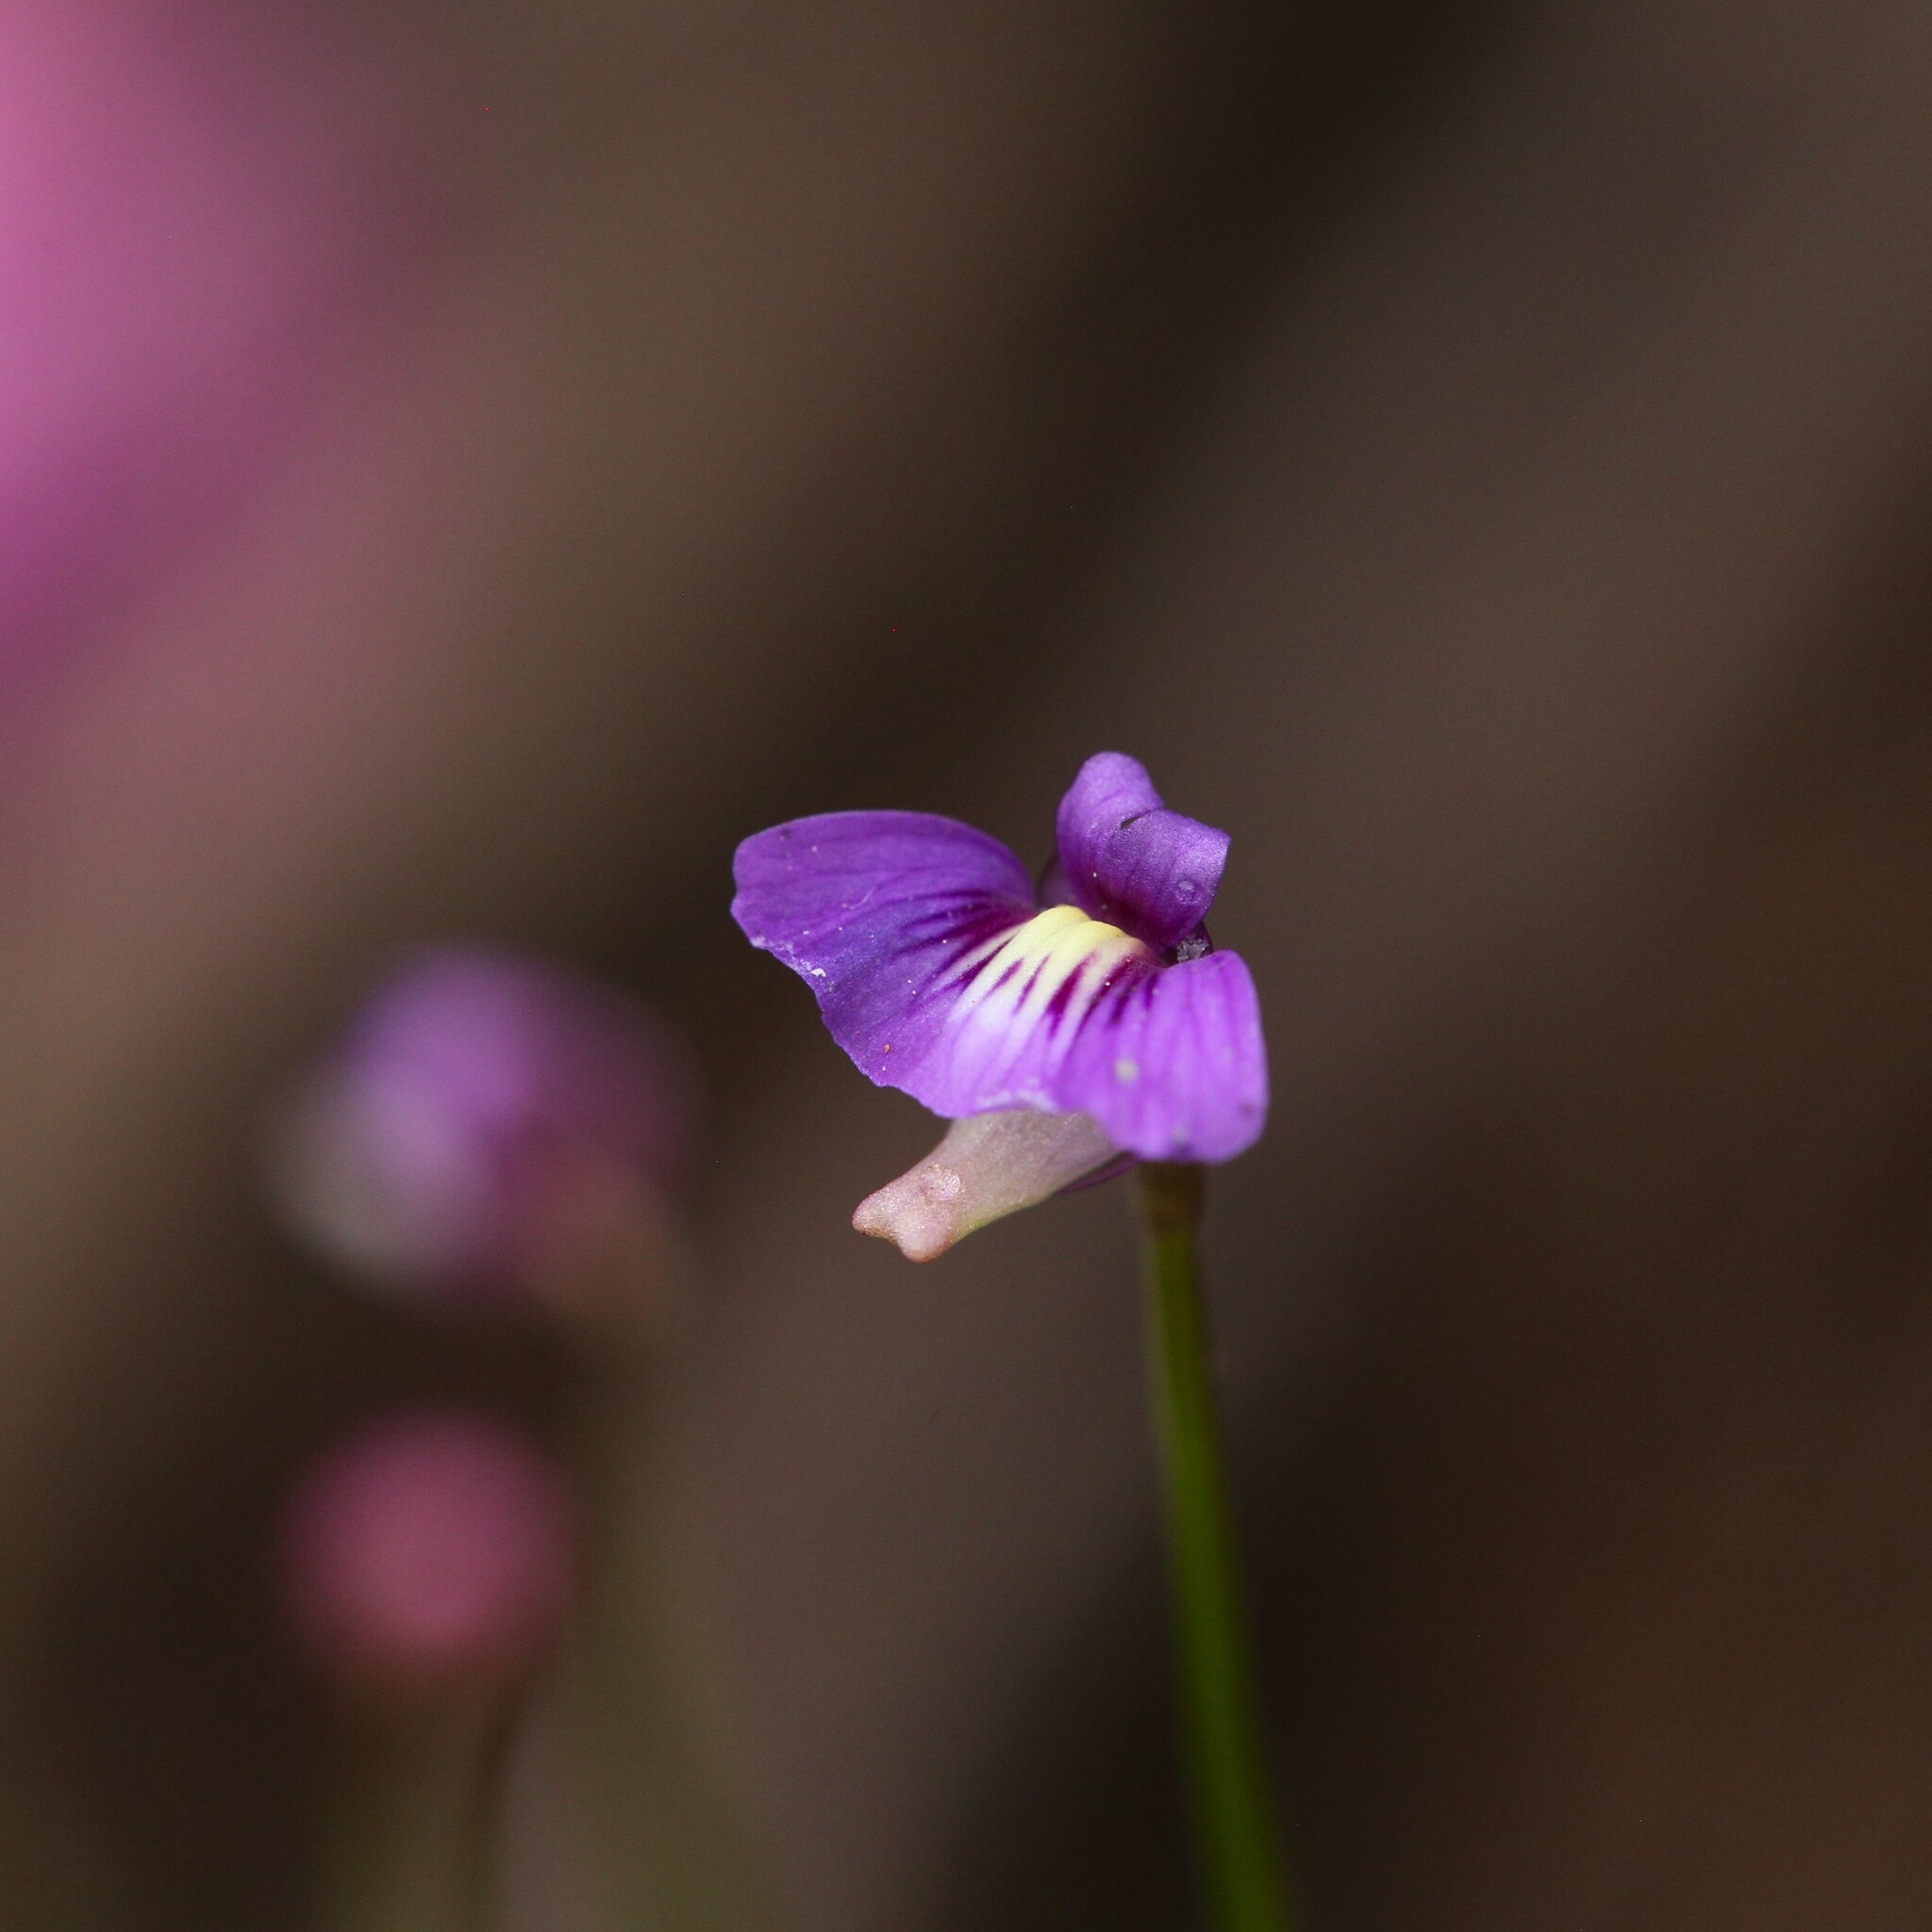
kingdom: Plantae
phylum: Tracheophyta
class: Magnoliopsida
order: Lamiales
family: Lentibulariaceae
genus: Utricularia
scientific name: Utricularia violacea
